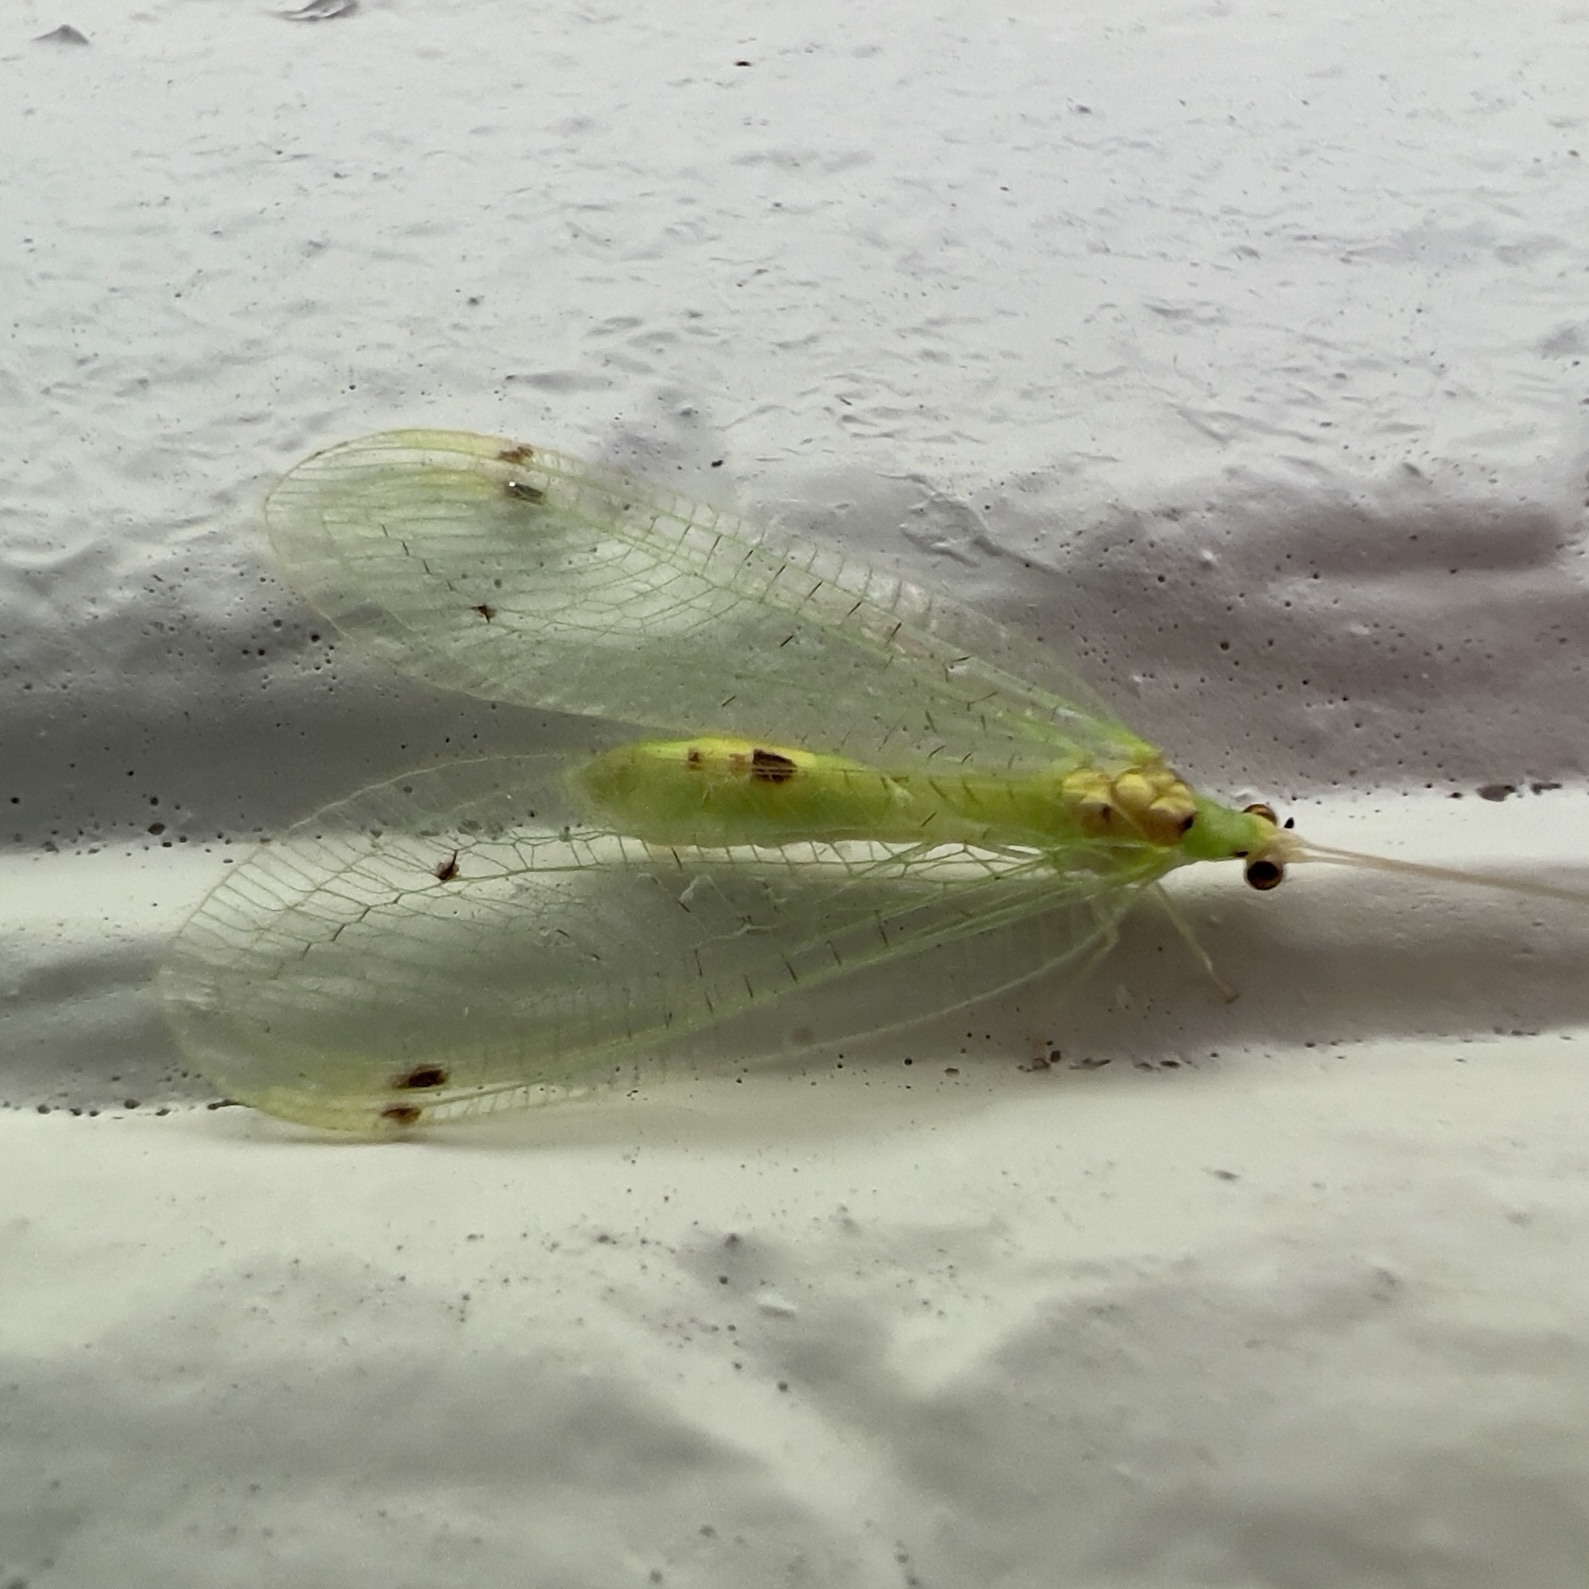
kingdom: Animalia
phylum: Arthropoda
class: Insecta
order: Neuroptera
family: Chrysopidae
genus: Leucochrysa
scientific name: Leucochrysa insularis
